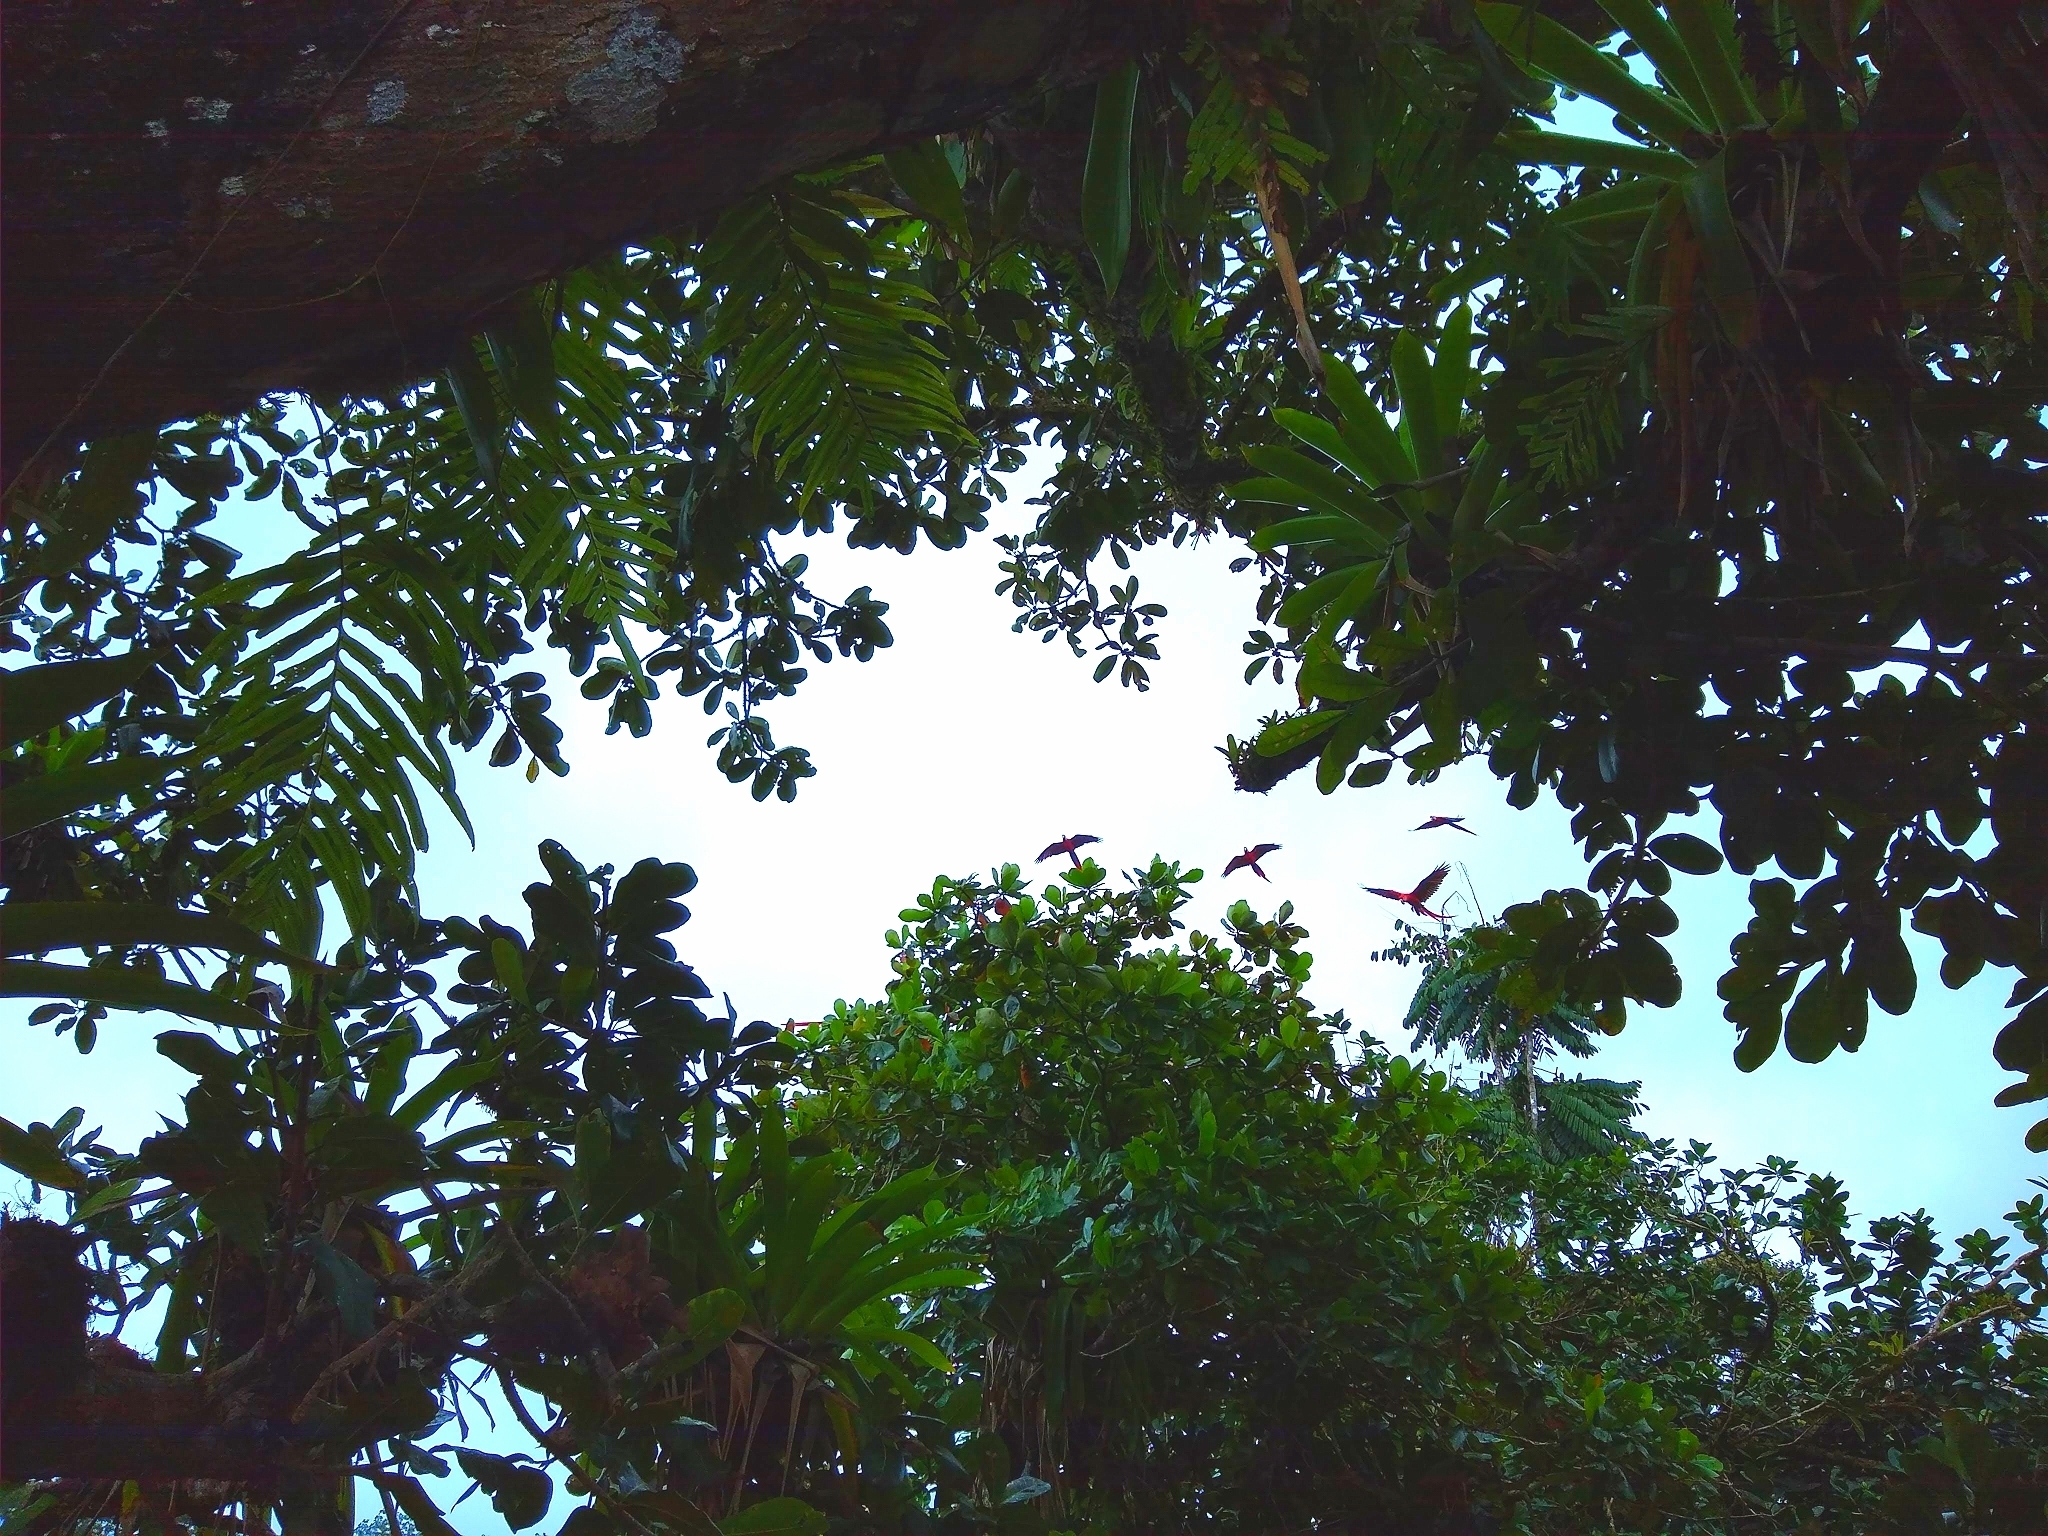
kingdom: Animalia
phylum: Chordata
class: Aves
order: Psittaciformes
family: Psittacidae
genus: Ara
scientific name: Ara macao
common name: Scarlet macaw
